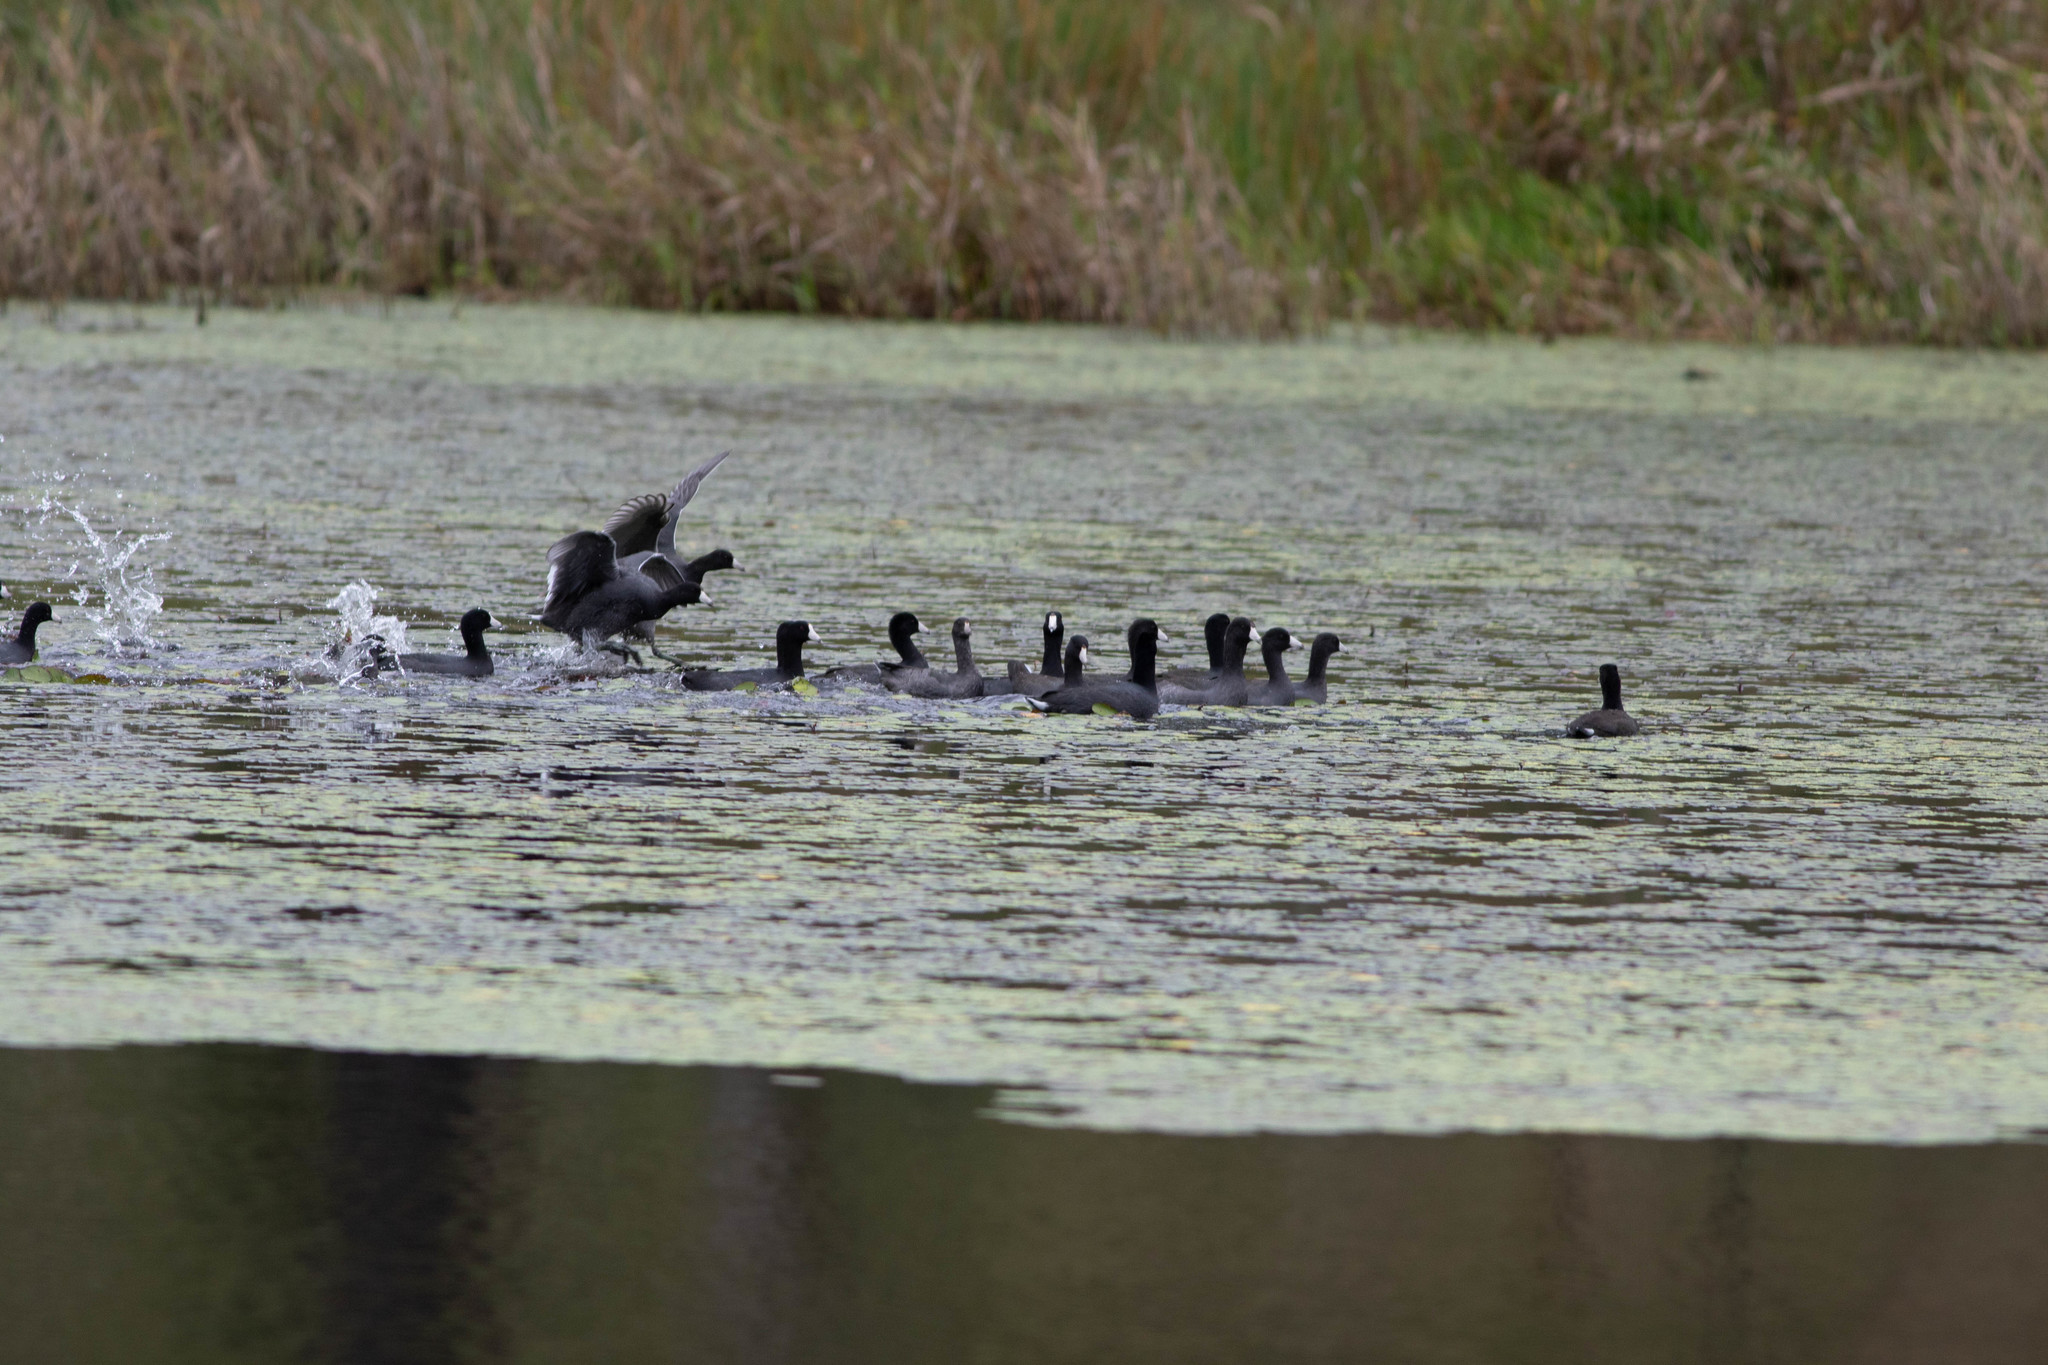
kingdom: Animalia
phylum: Chordata
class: Aves
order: Gruiformes
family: Rallidae
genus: Fulica
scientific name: Fulica americana
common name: American coot
